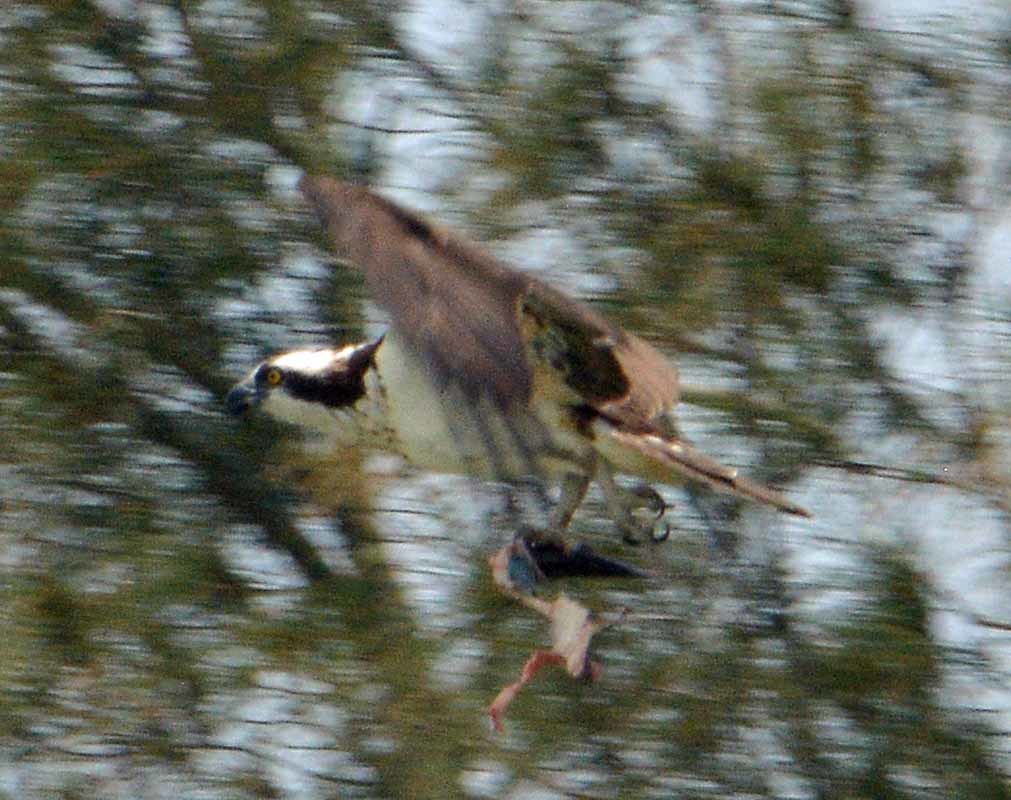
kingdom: Animalia
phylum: Chordata
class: Aves
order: Accipitriformes
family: Pandionidae
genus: Pandion
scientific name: Pandion haliaetus
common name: Osprey
